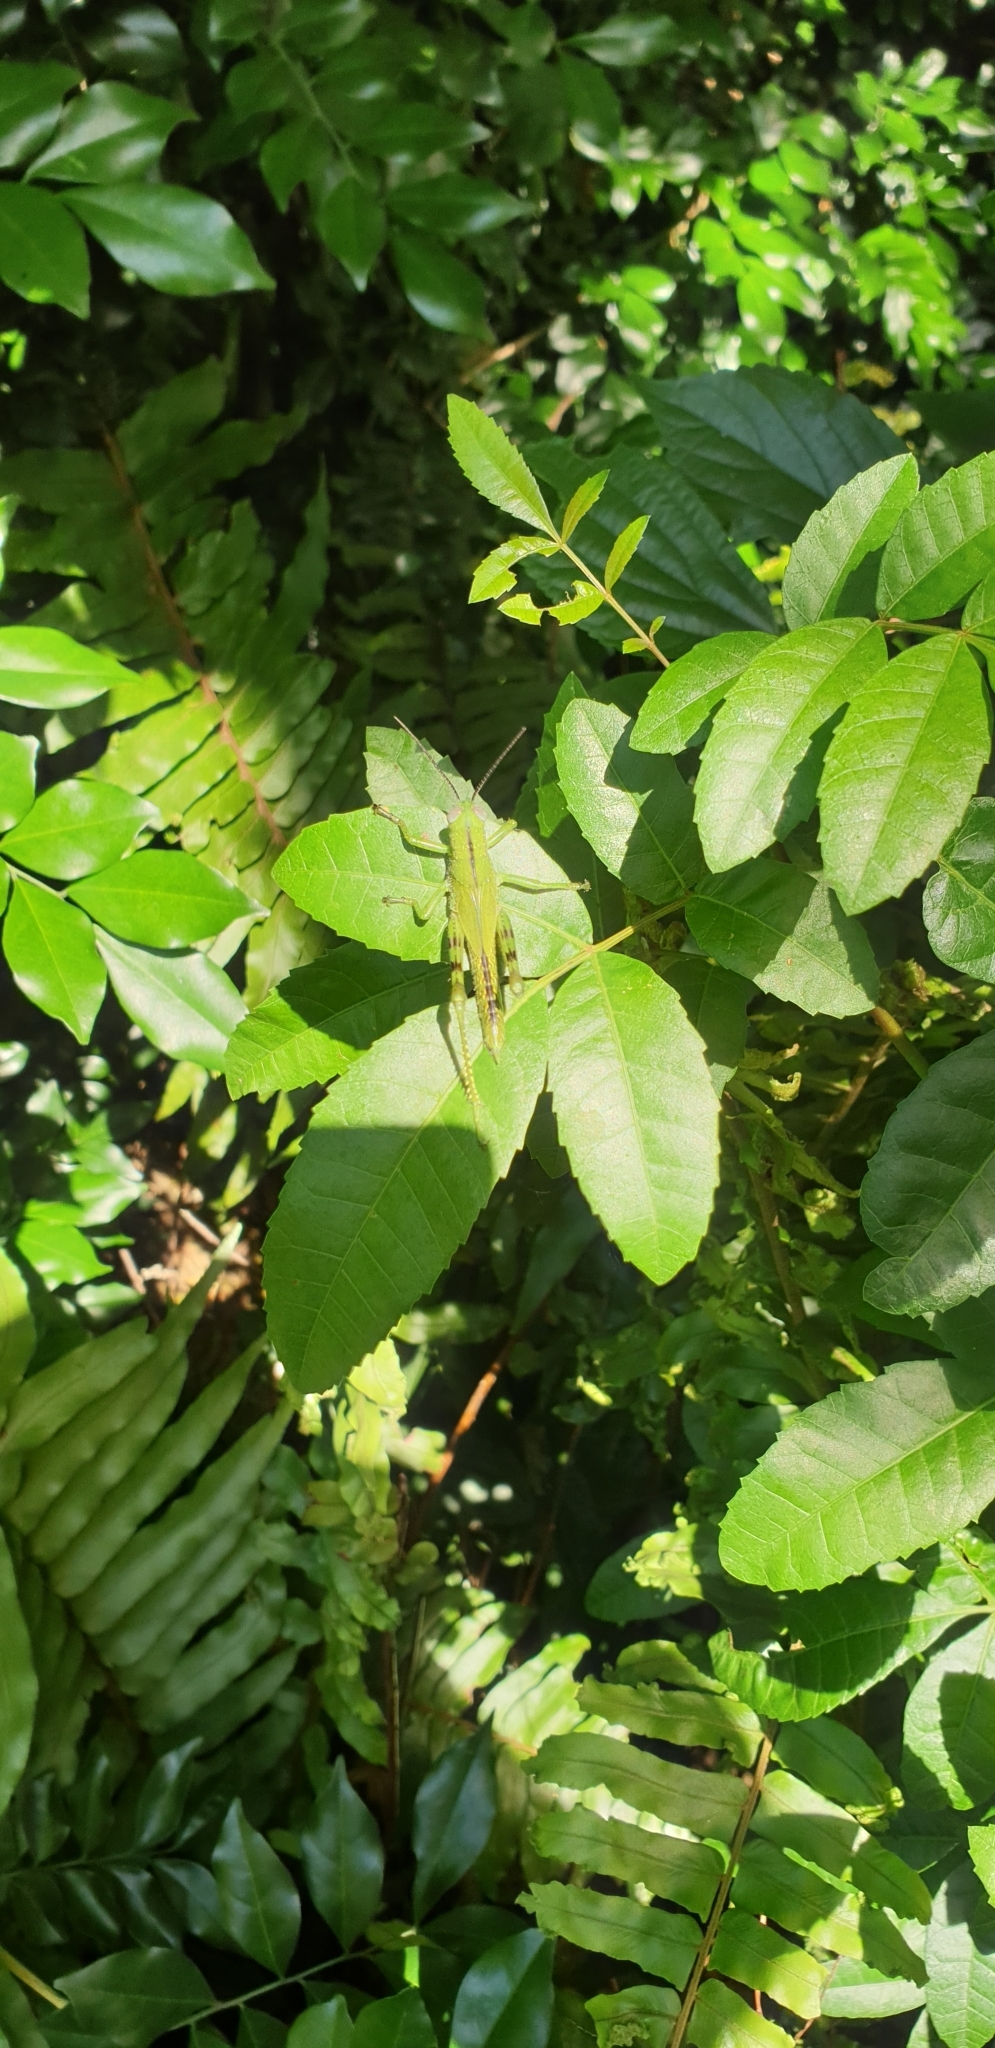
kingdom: Animalia
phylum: Arthropoda
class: Insecta
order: Orthoptera
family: Acrididae
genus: Valanga
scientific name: Valanga irregularis
